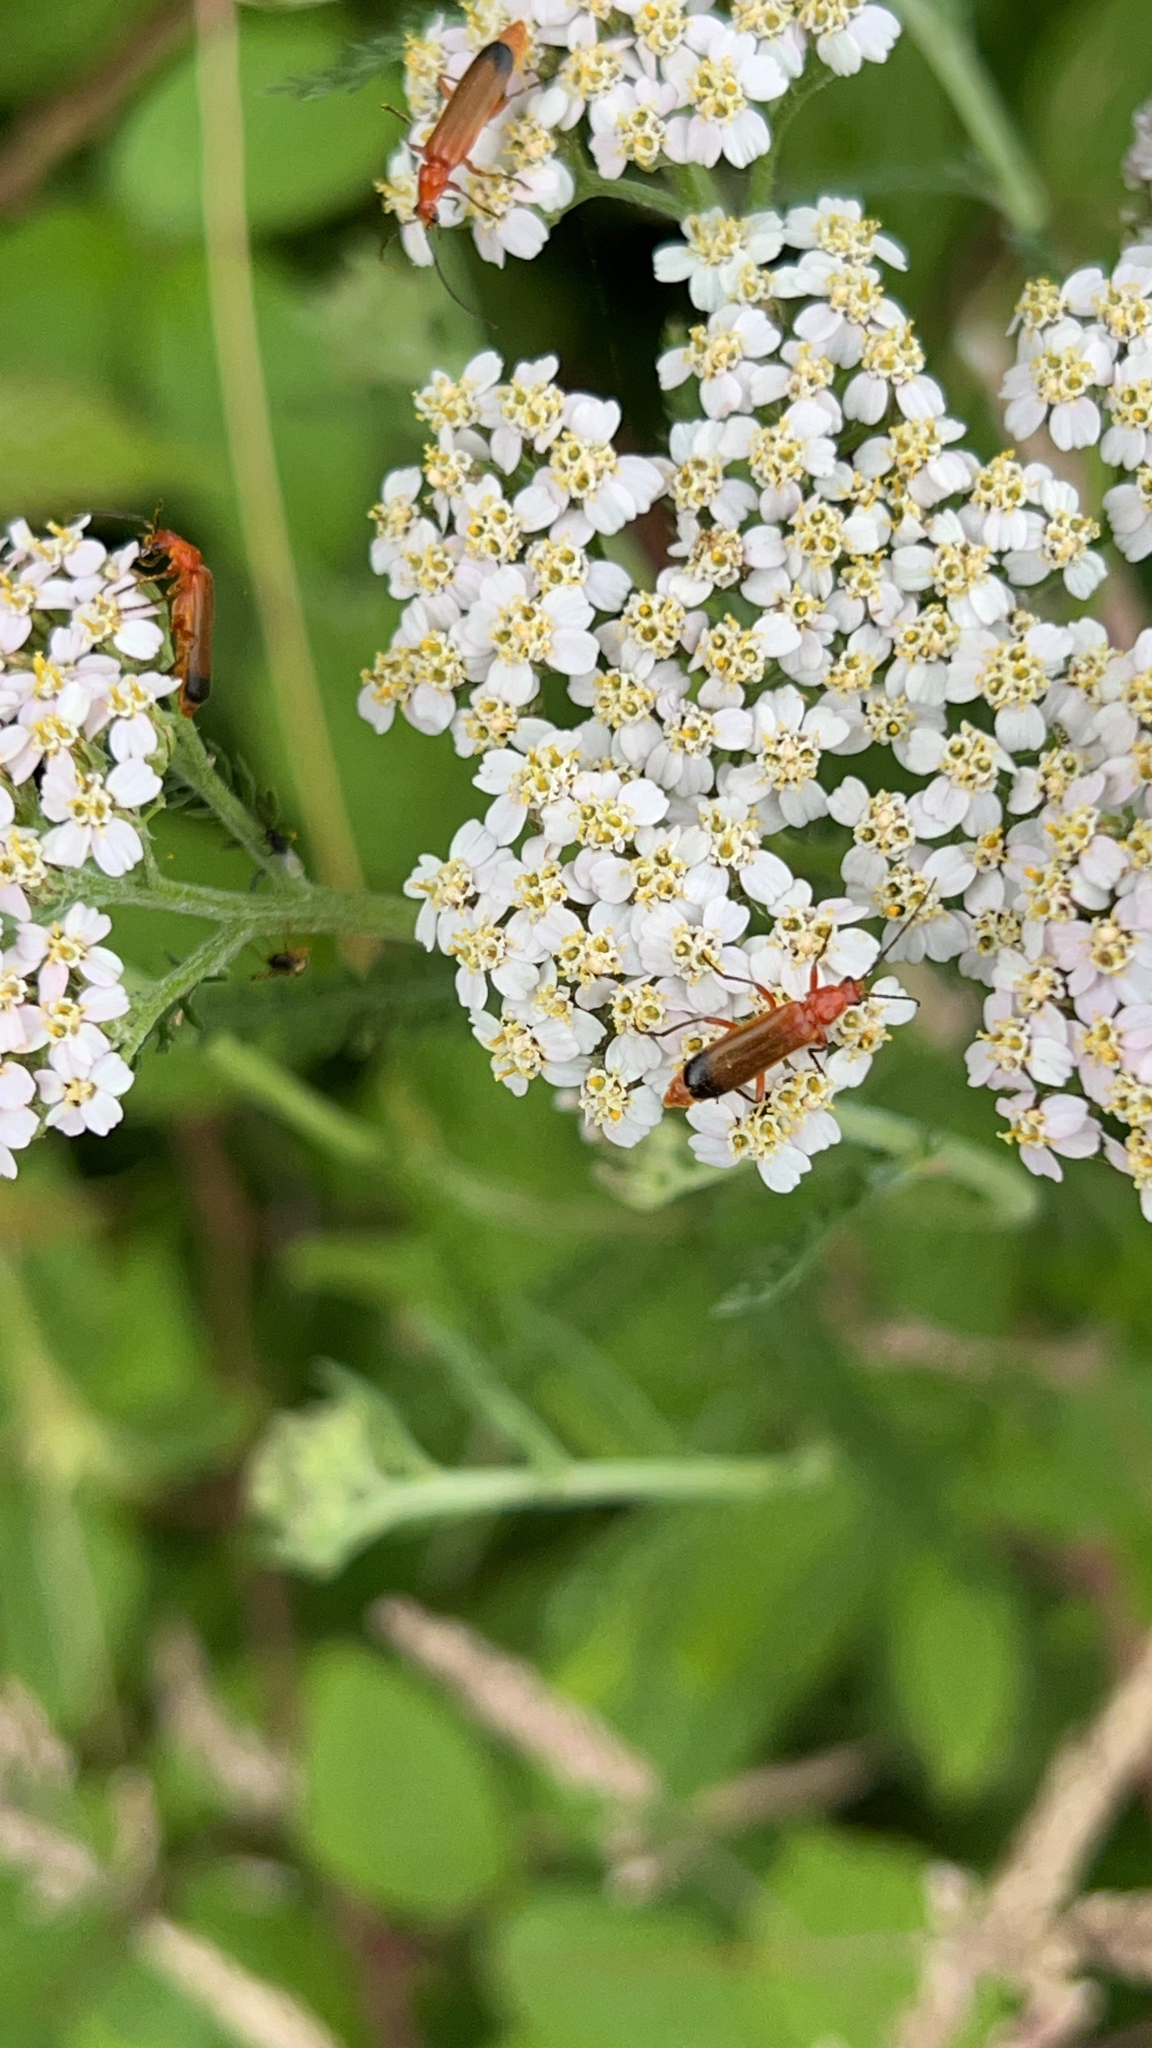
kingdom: Animalia
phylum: Arthropoda
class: Insecta
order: Coleoptera
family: Cantharidae
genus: Rhagonycha
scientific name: Rhagonycha fulva
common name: Common red soldier beetle
